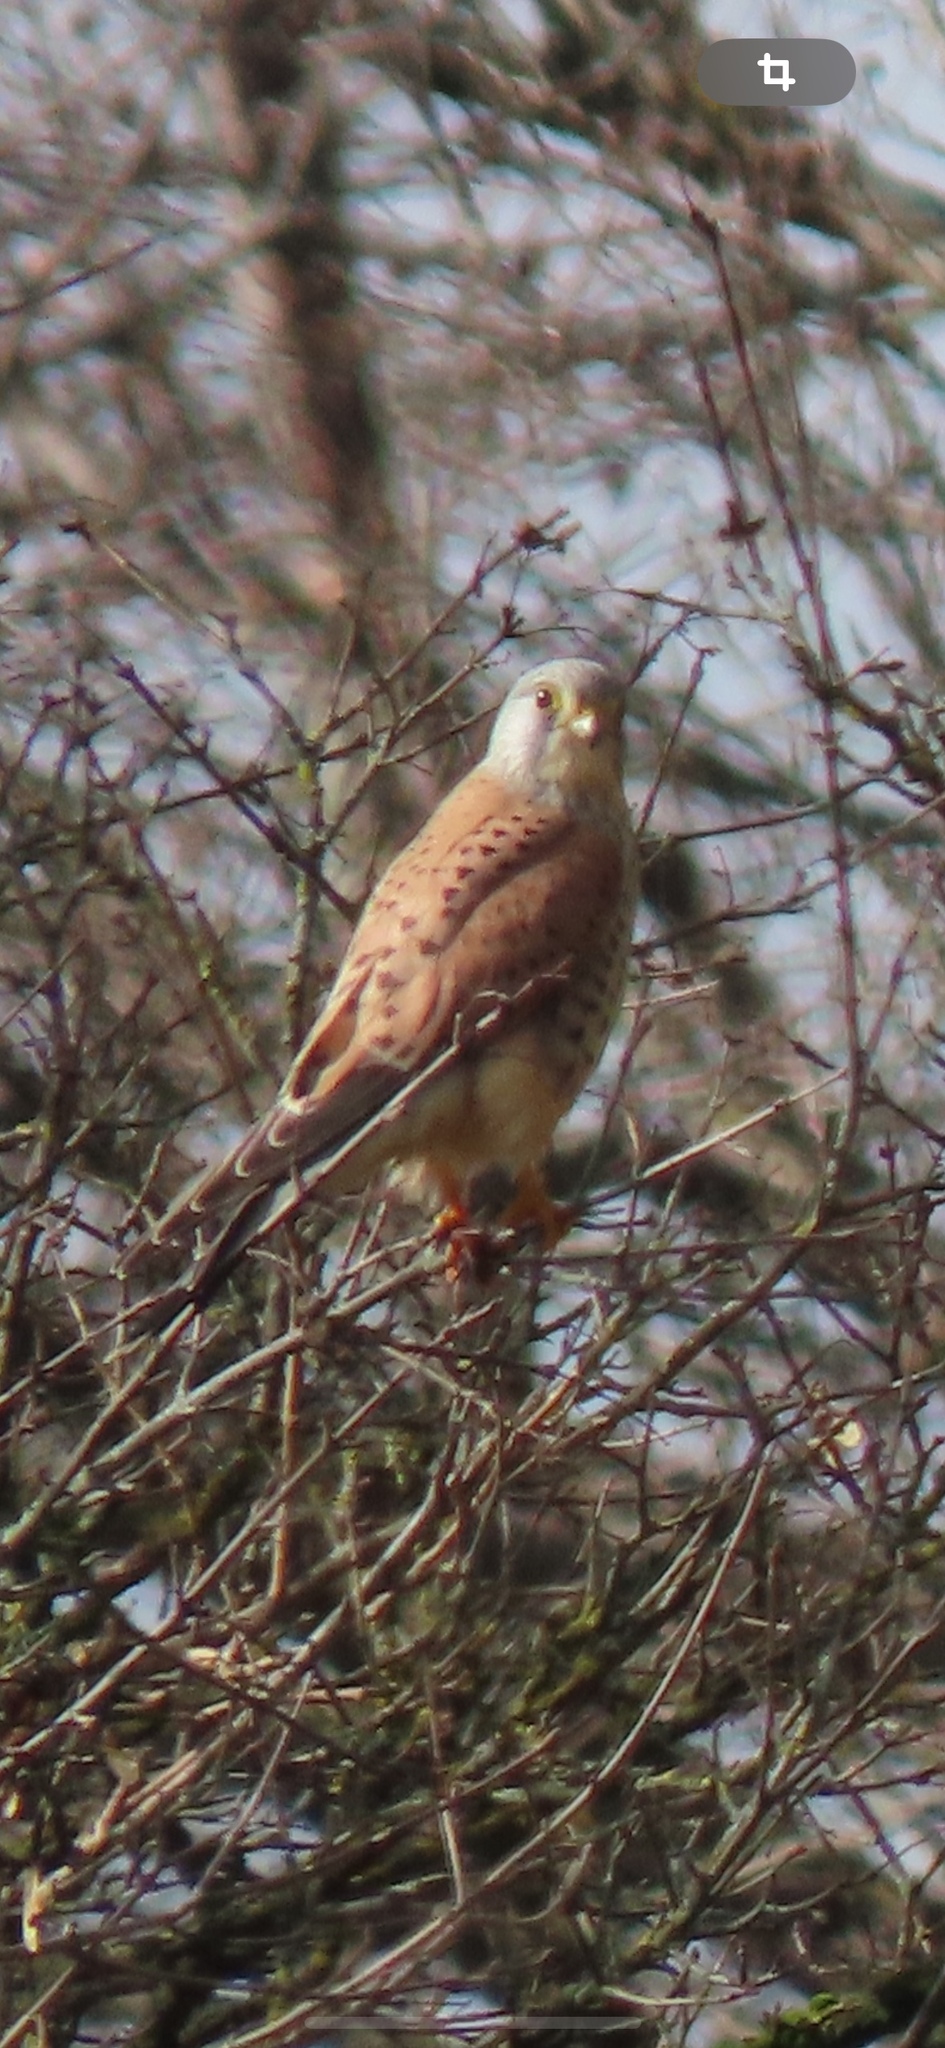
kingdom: Animalia
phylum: Chordata
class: Aves
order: Falconiformes
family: Falconidae
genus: Falco
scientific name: Falco tinnunculus
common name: Common kestrel
